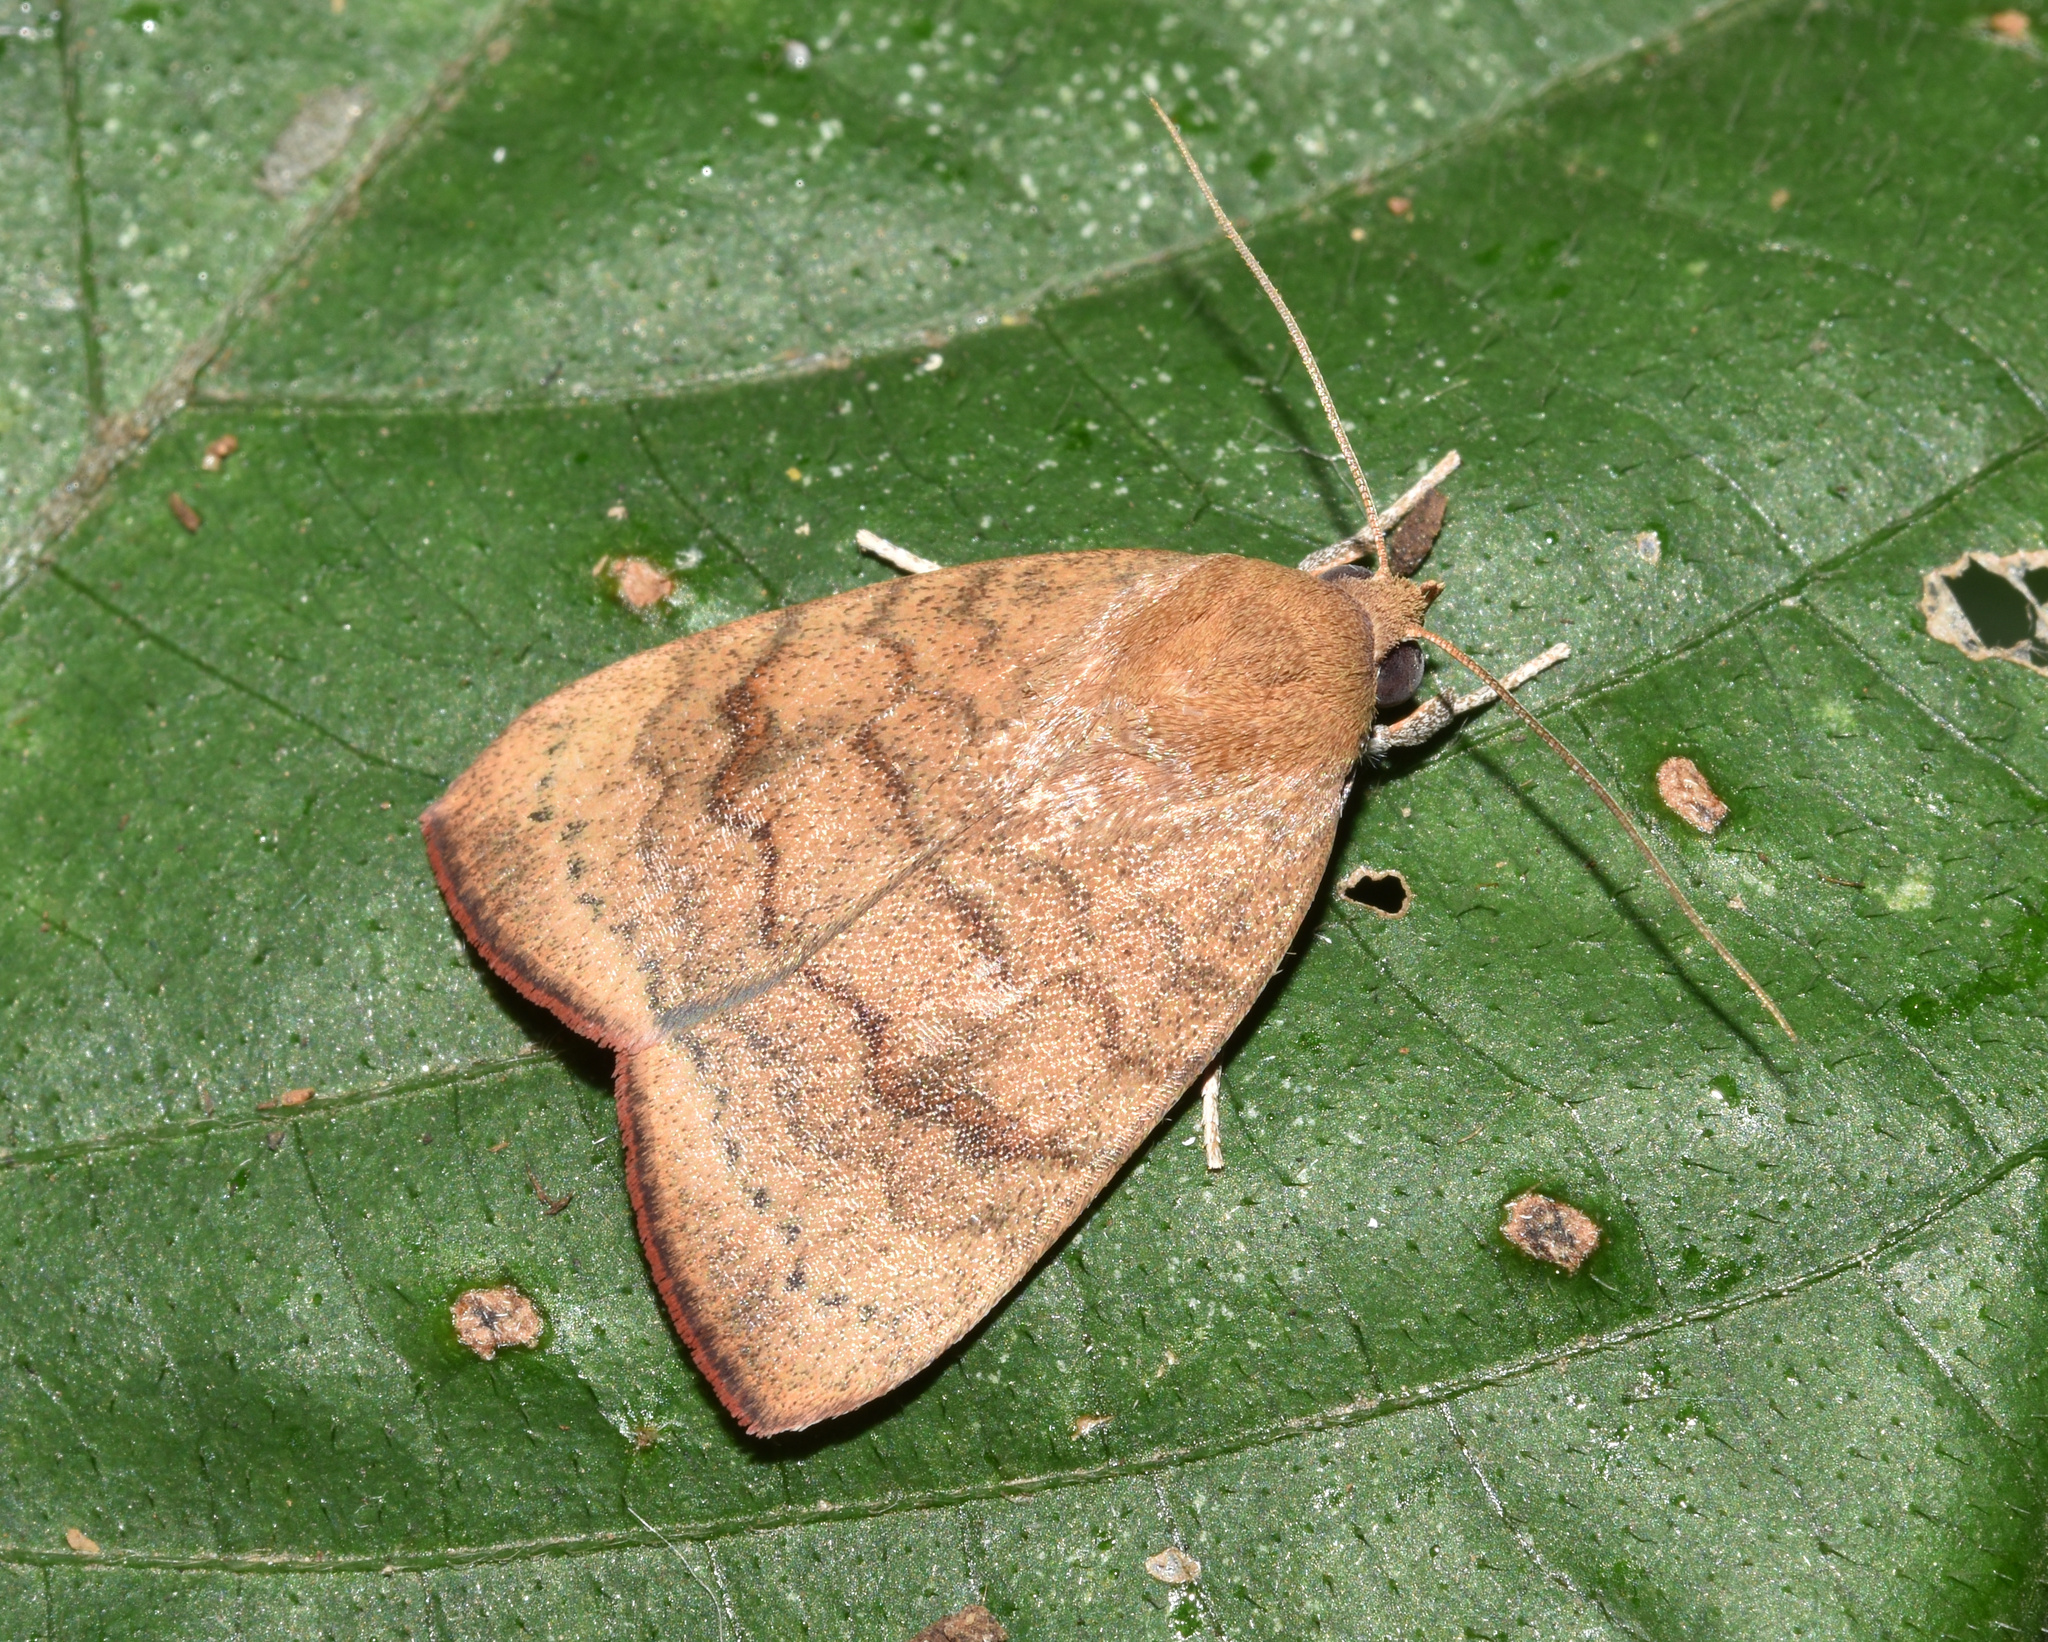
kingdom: Animalia
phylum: Arthropoda
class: Insecta
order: Lepidoptera
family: Nolidae
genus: Maurilia
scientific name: Maurilia arcuata
